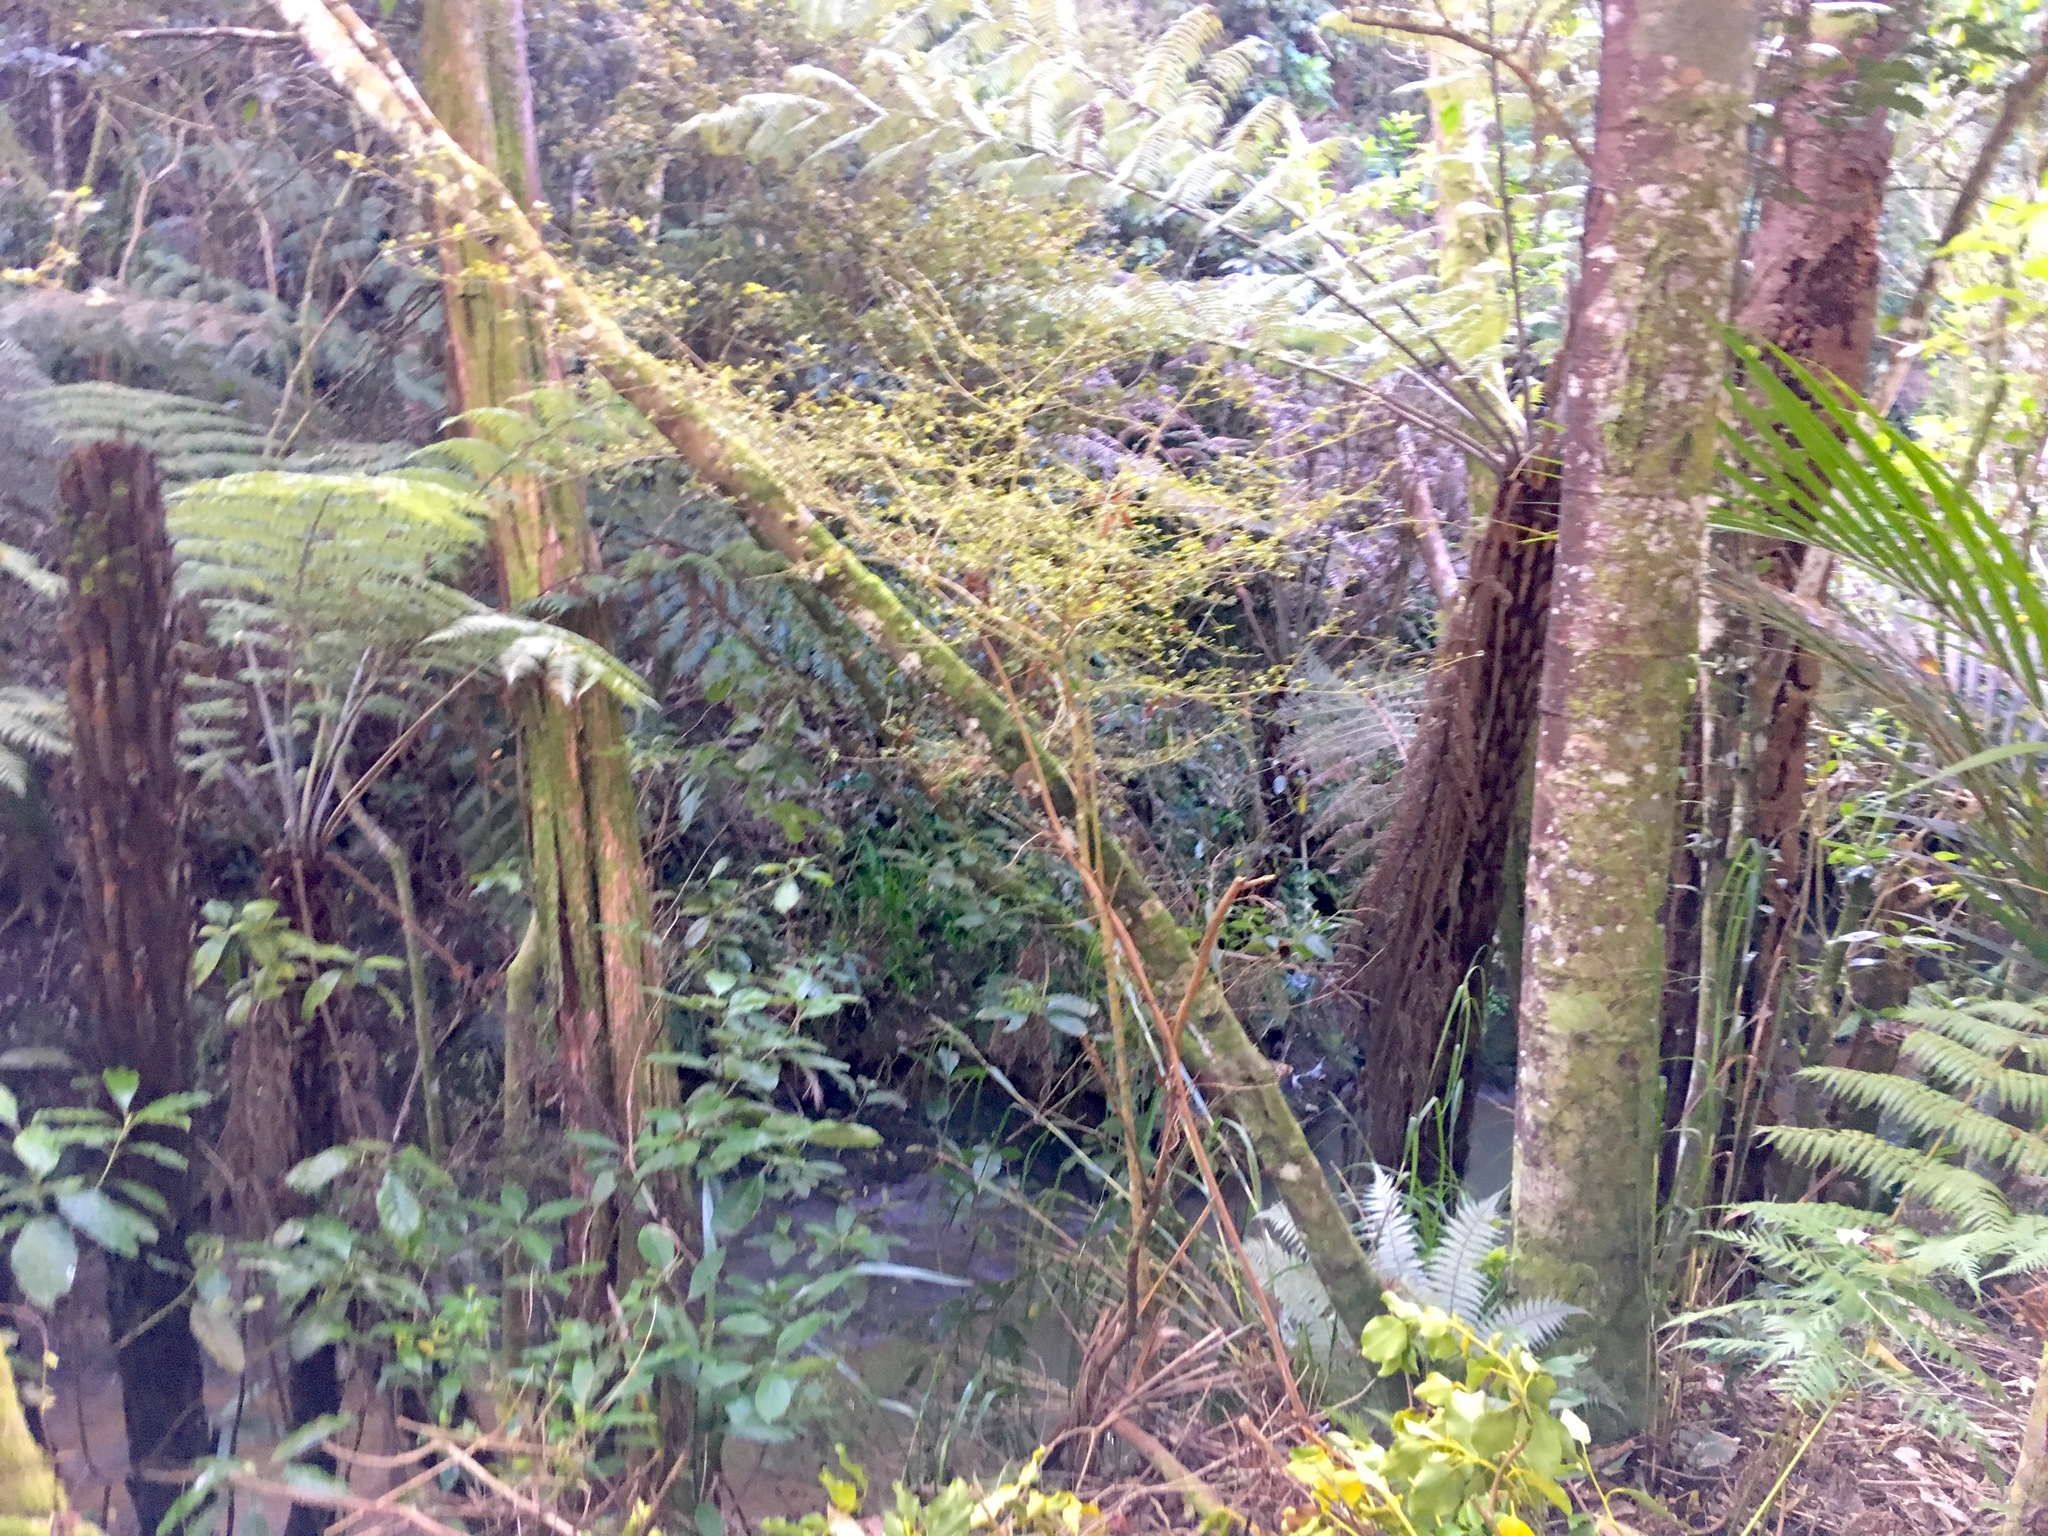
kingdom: Plantae
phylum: Tracheophyta
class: Pinopsida
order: Pinales
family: Phyllocladaceae
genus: Phyllocladus
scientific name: Phyllocladus trichomanoides
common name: Celery pine
